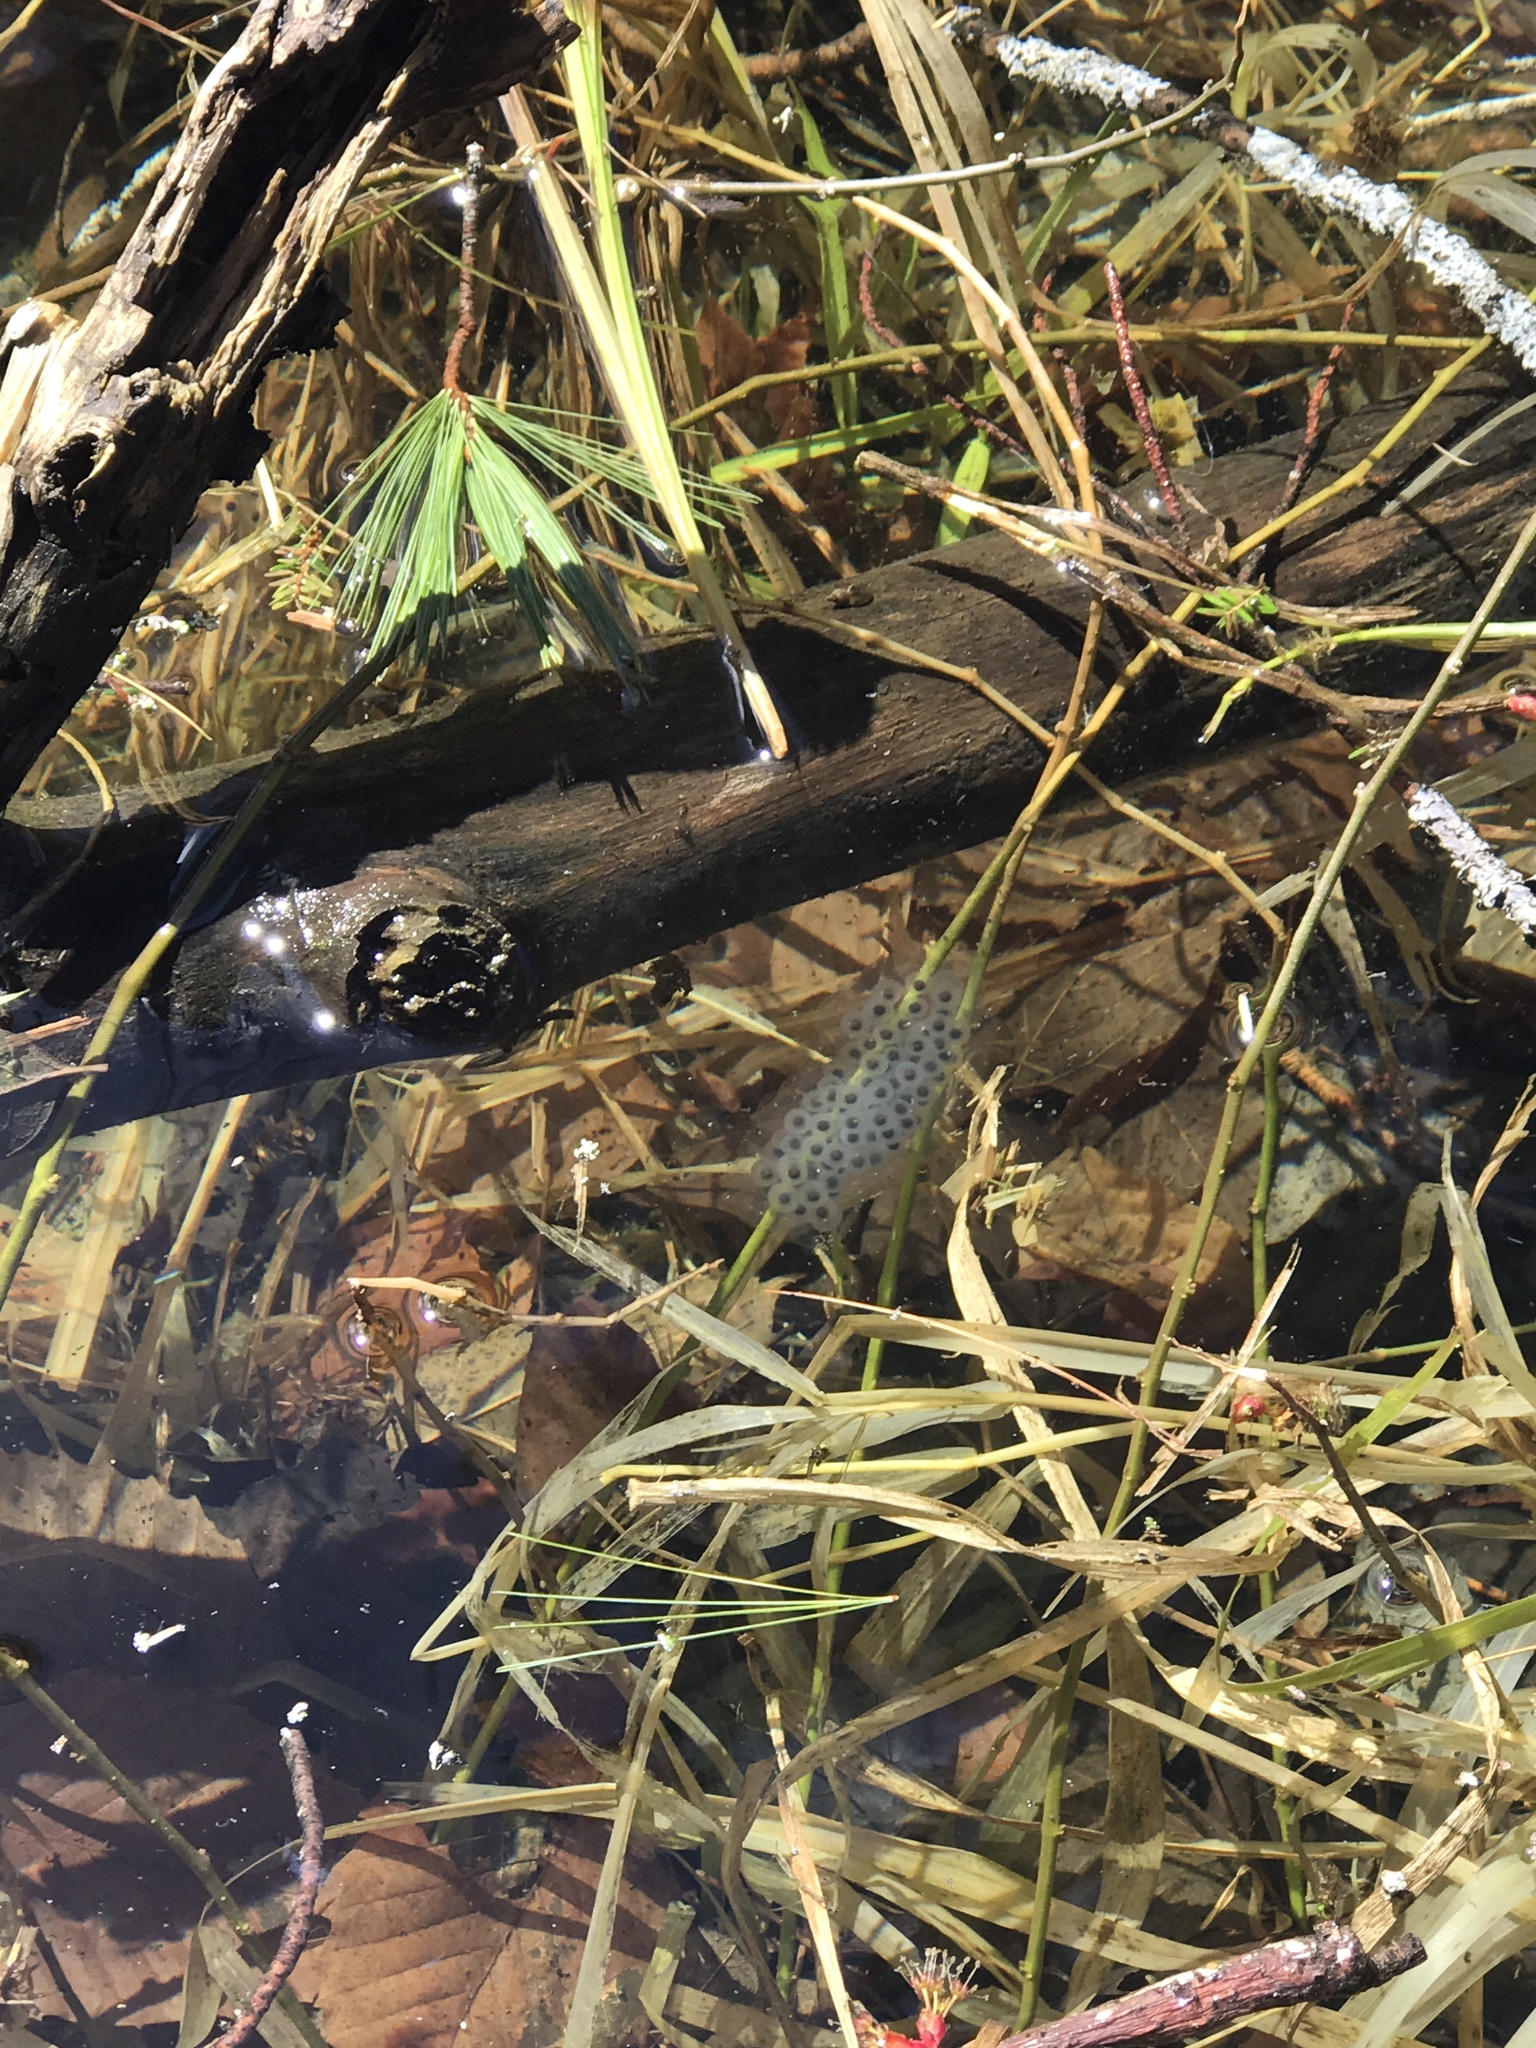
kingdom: Animalia
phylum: Chordata
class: Amphibia
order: Caudata
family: Ambystomatidae
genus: Ambystoma
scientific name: Ambystoma maculatum
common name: Spotted salamander
